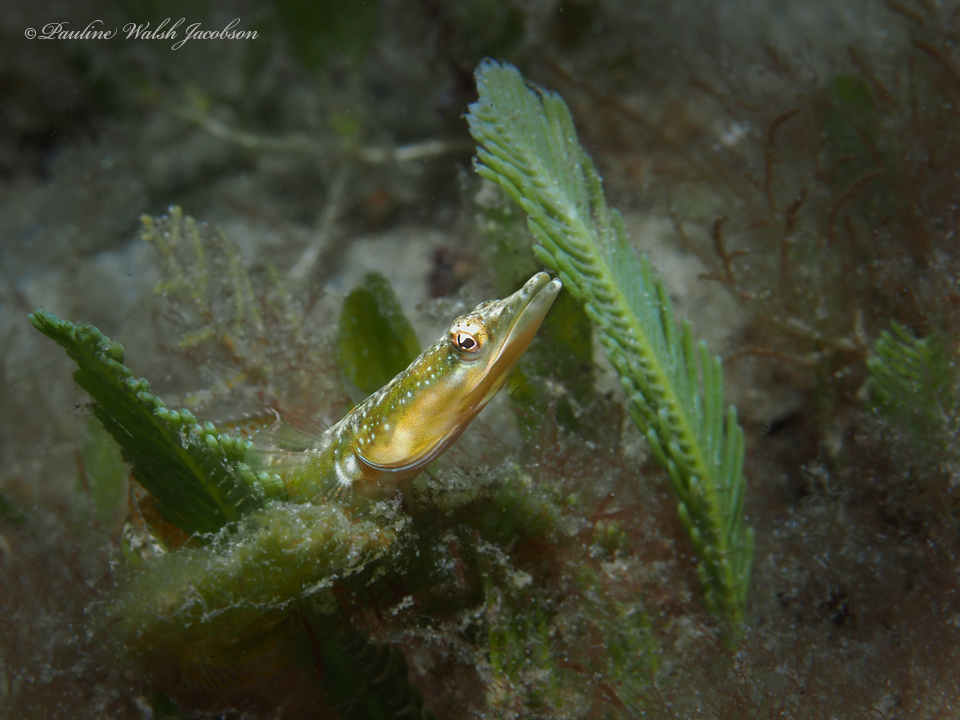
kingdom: Animalia
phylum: Chordata
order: Perciformes
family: Chaenopsidae
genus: Chaenopsis
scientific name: Chaenopsis ocellata
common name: Bluethroat pikeblenny
